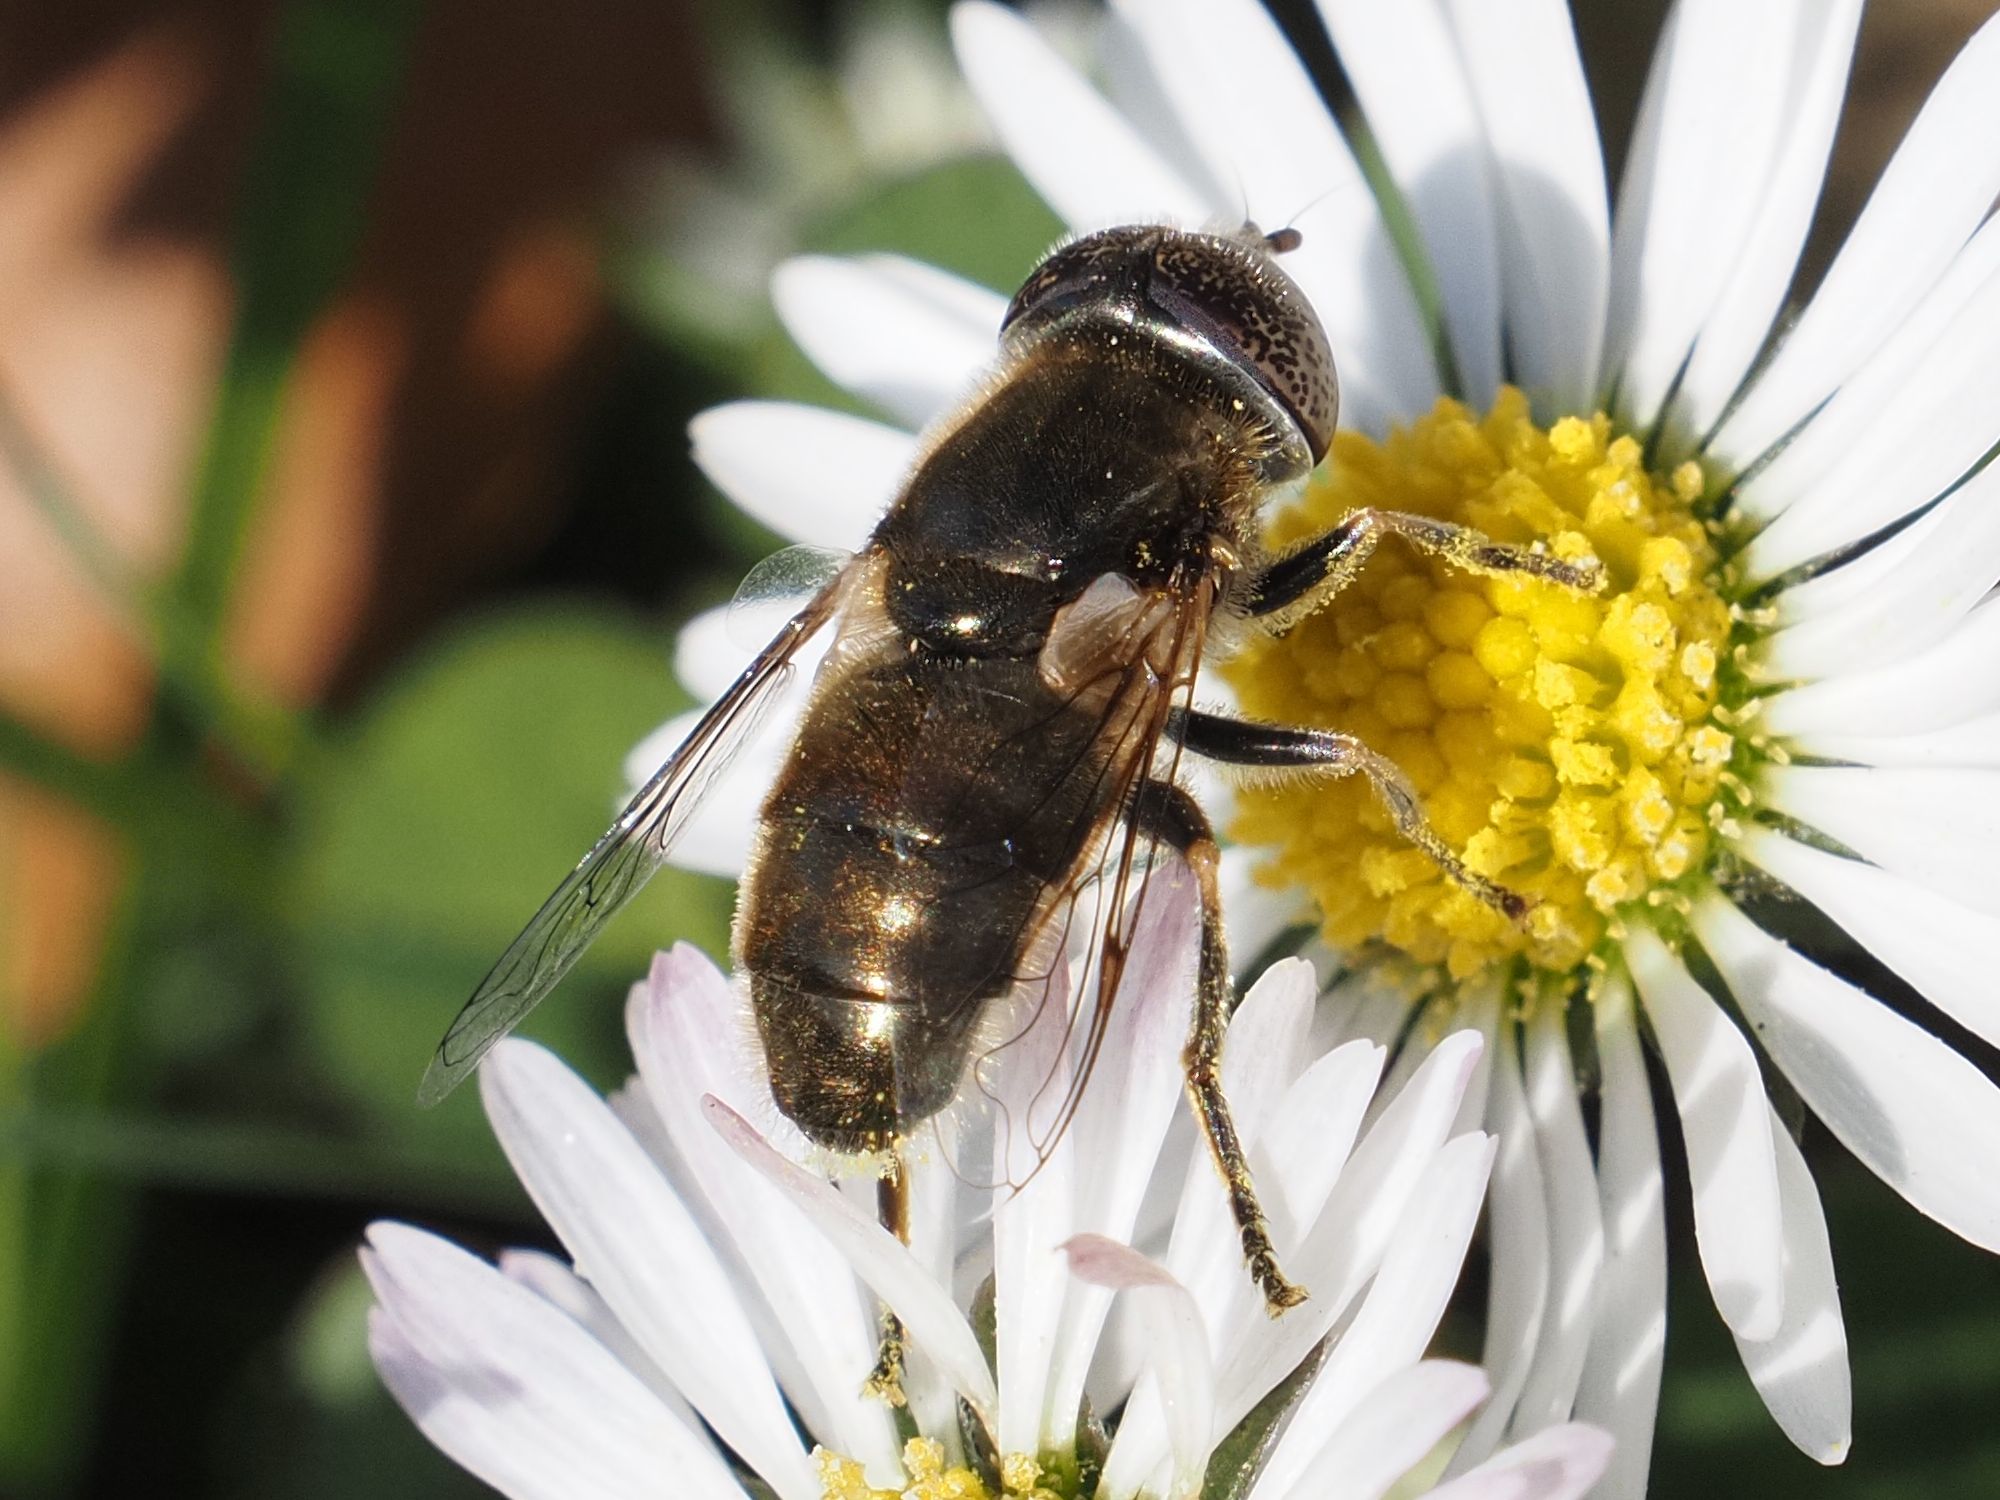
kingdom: Animalia
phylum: Arthropoda
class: Insecta
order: Diptera
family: Syrphidae
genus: Eristalinus
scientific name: Eristalinus aeneus
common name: Syrphid fly
